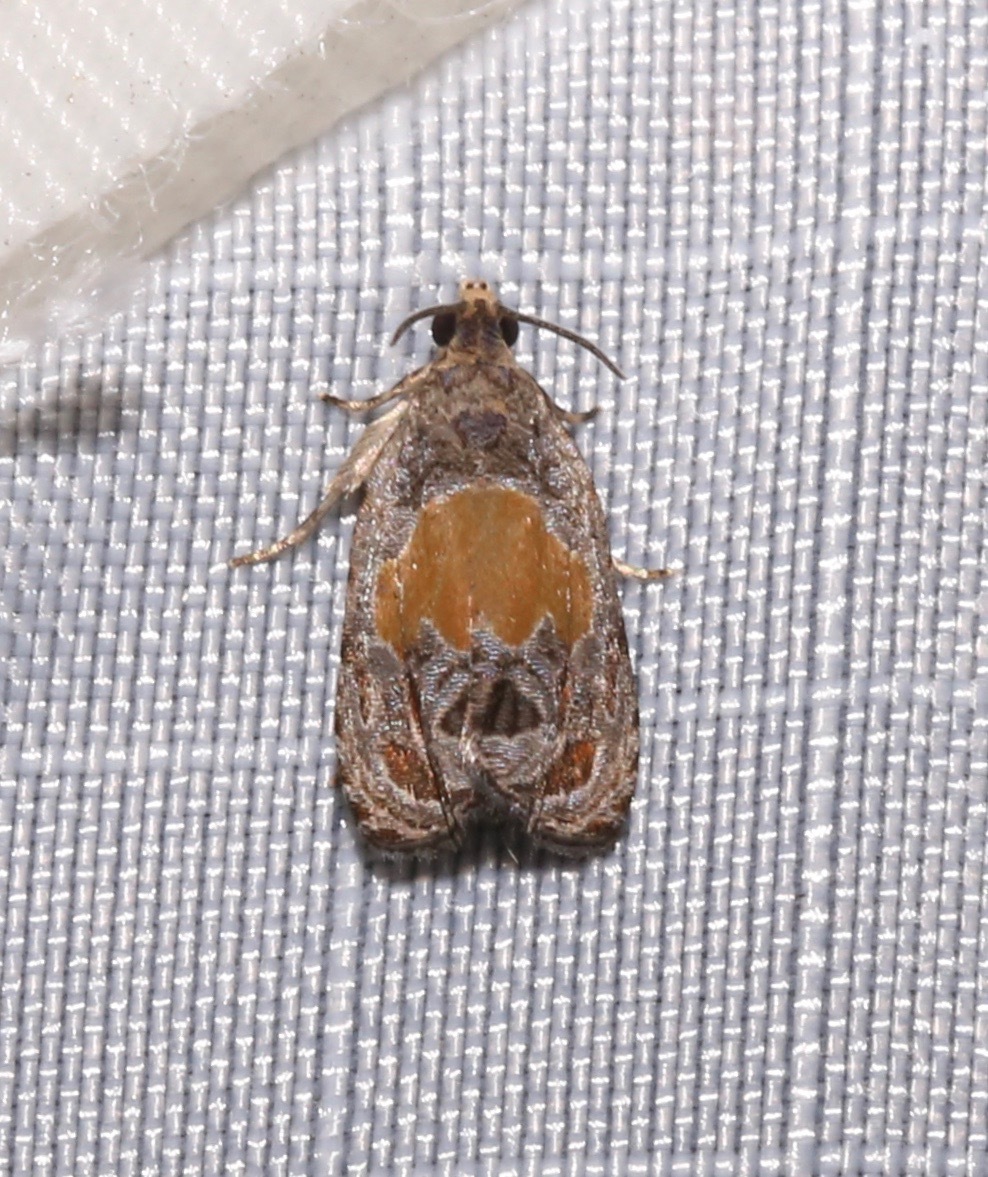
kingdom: Animalia
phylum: Arthropoda
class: Insecta
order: Lepidoptera
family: Tortricidae
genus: Olethreutes
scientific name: Olethreutes osmundana
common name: Fern olethreutes moth
